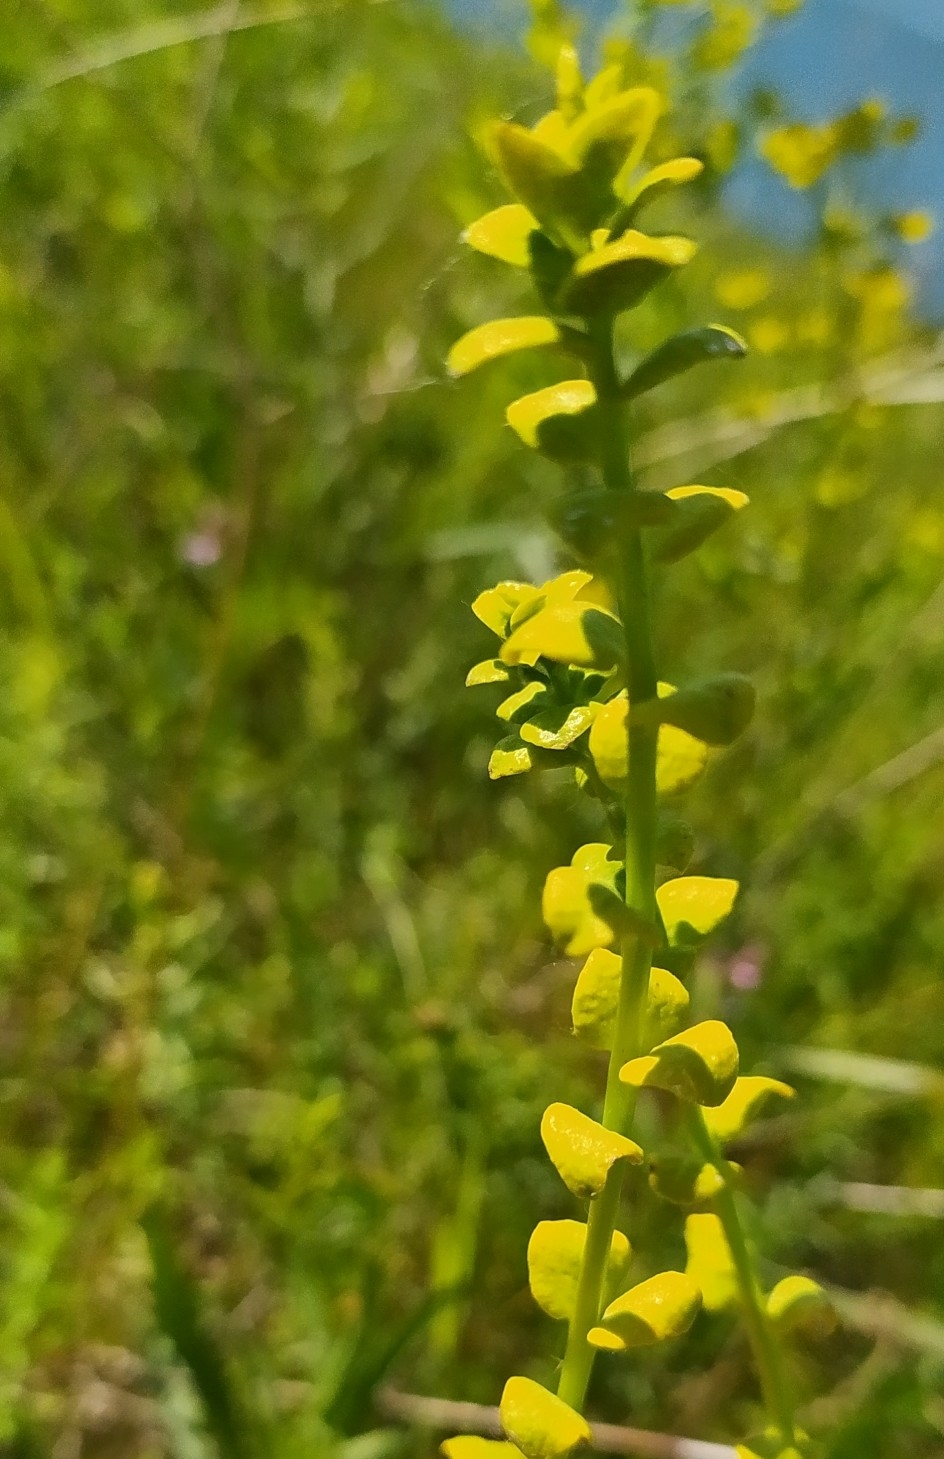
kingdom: Plantae
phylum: Tracheophyta
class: Magnoliopsida
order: Malpighiales
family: Euphorbiaceae
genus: Euphorbia
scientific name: Euphorbia virgata
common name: Leafy spurge
